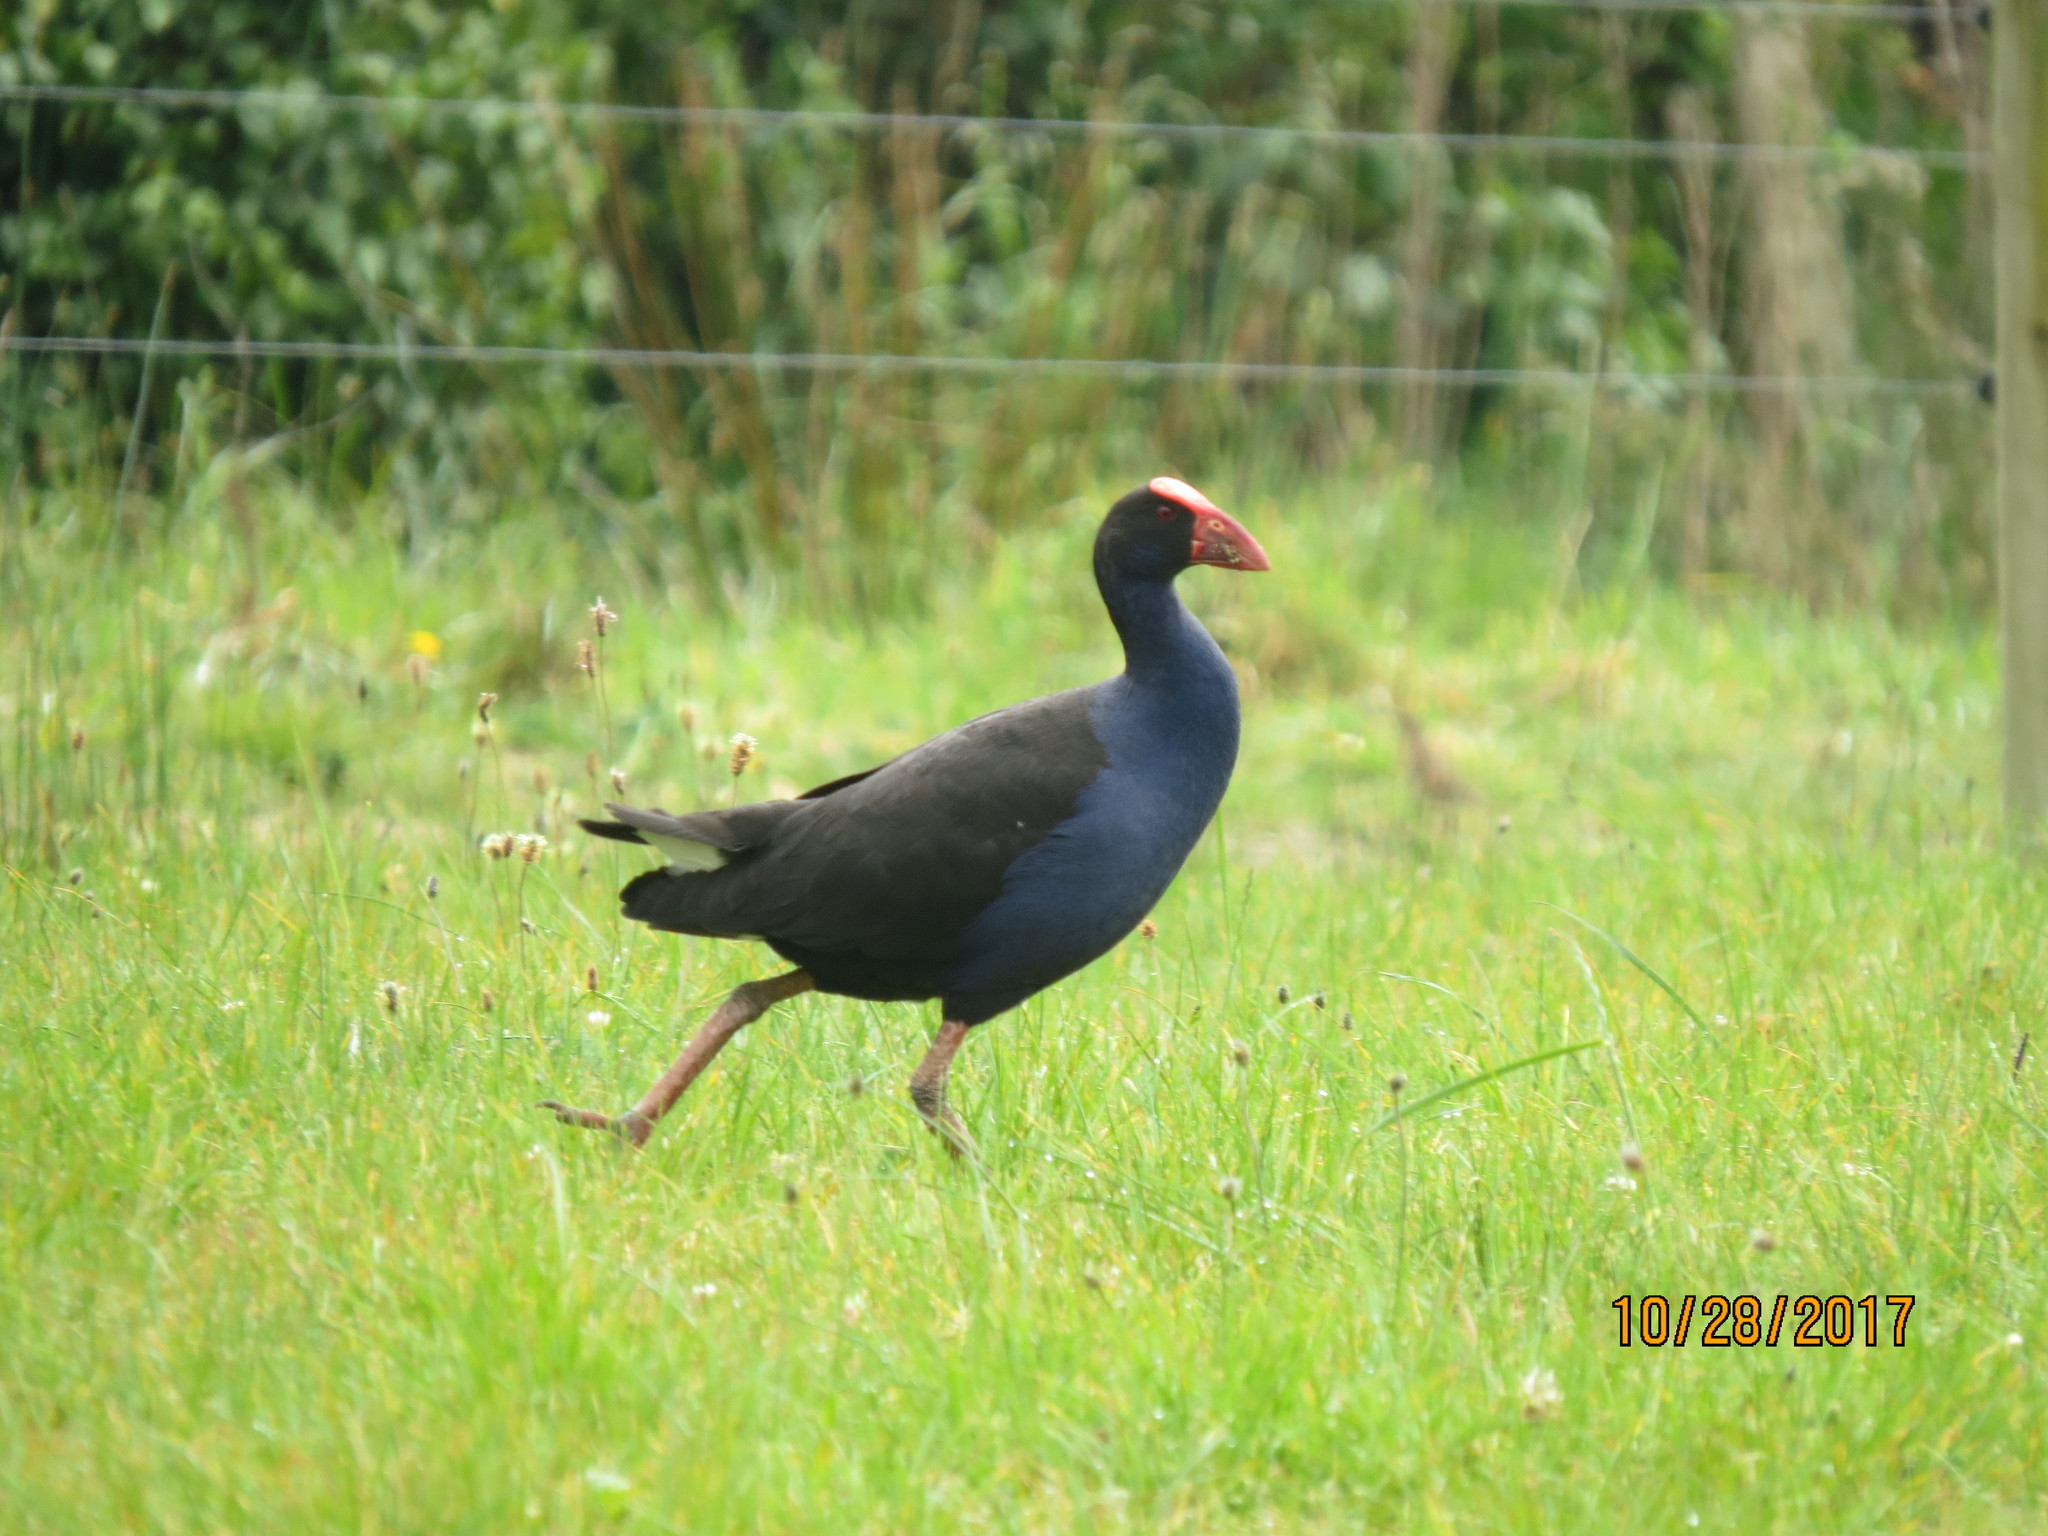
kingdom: Animalia
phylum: Chordata
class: Aves
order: Gruiformes
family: Rallidae
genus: Porphyrio
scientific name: Porphyrio melanotus
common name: Australasian swamphen
